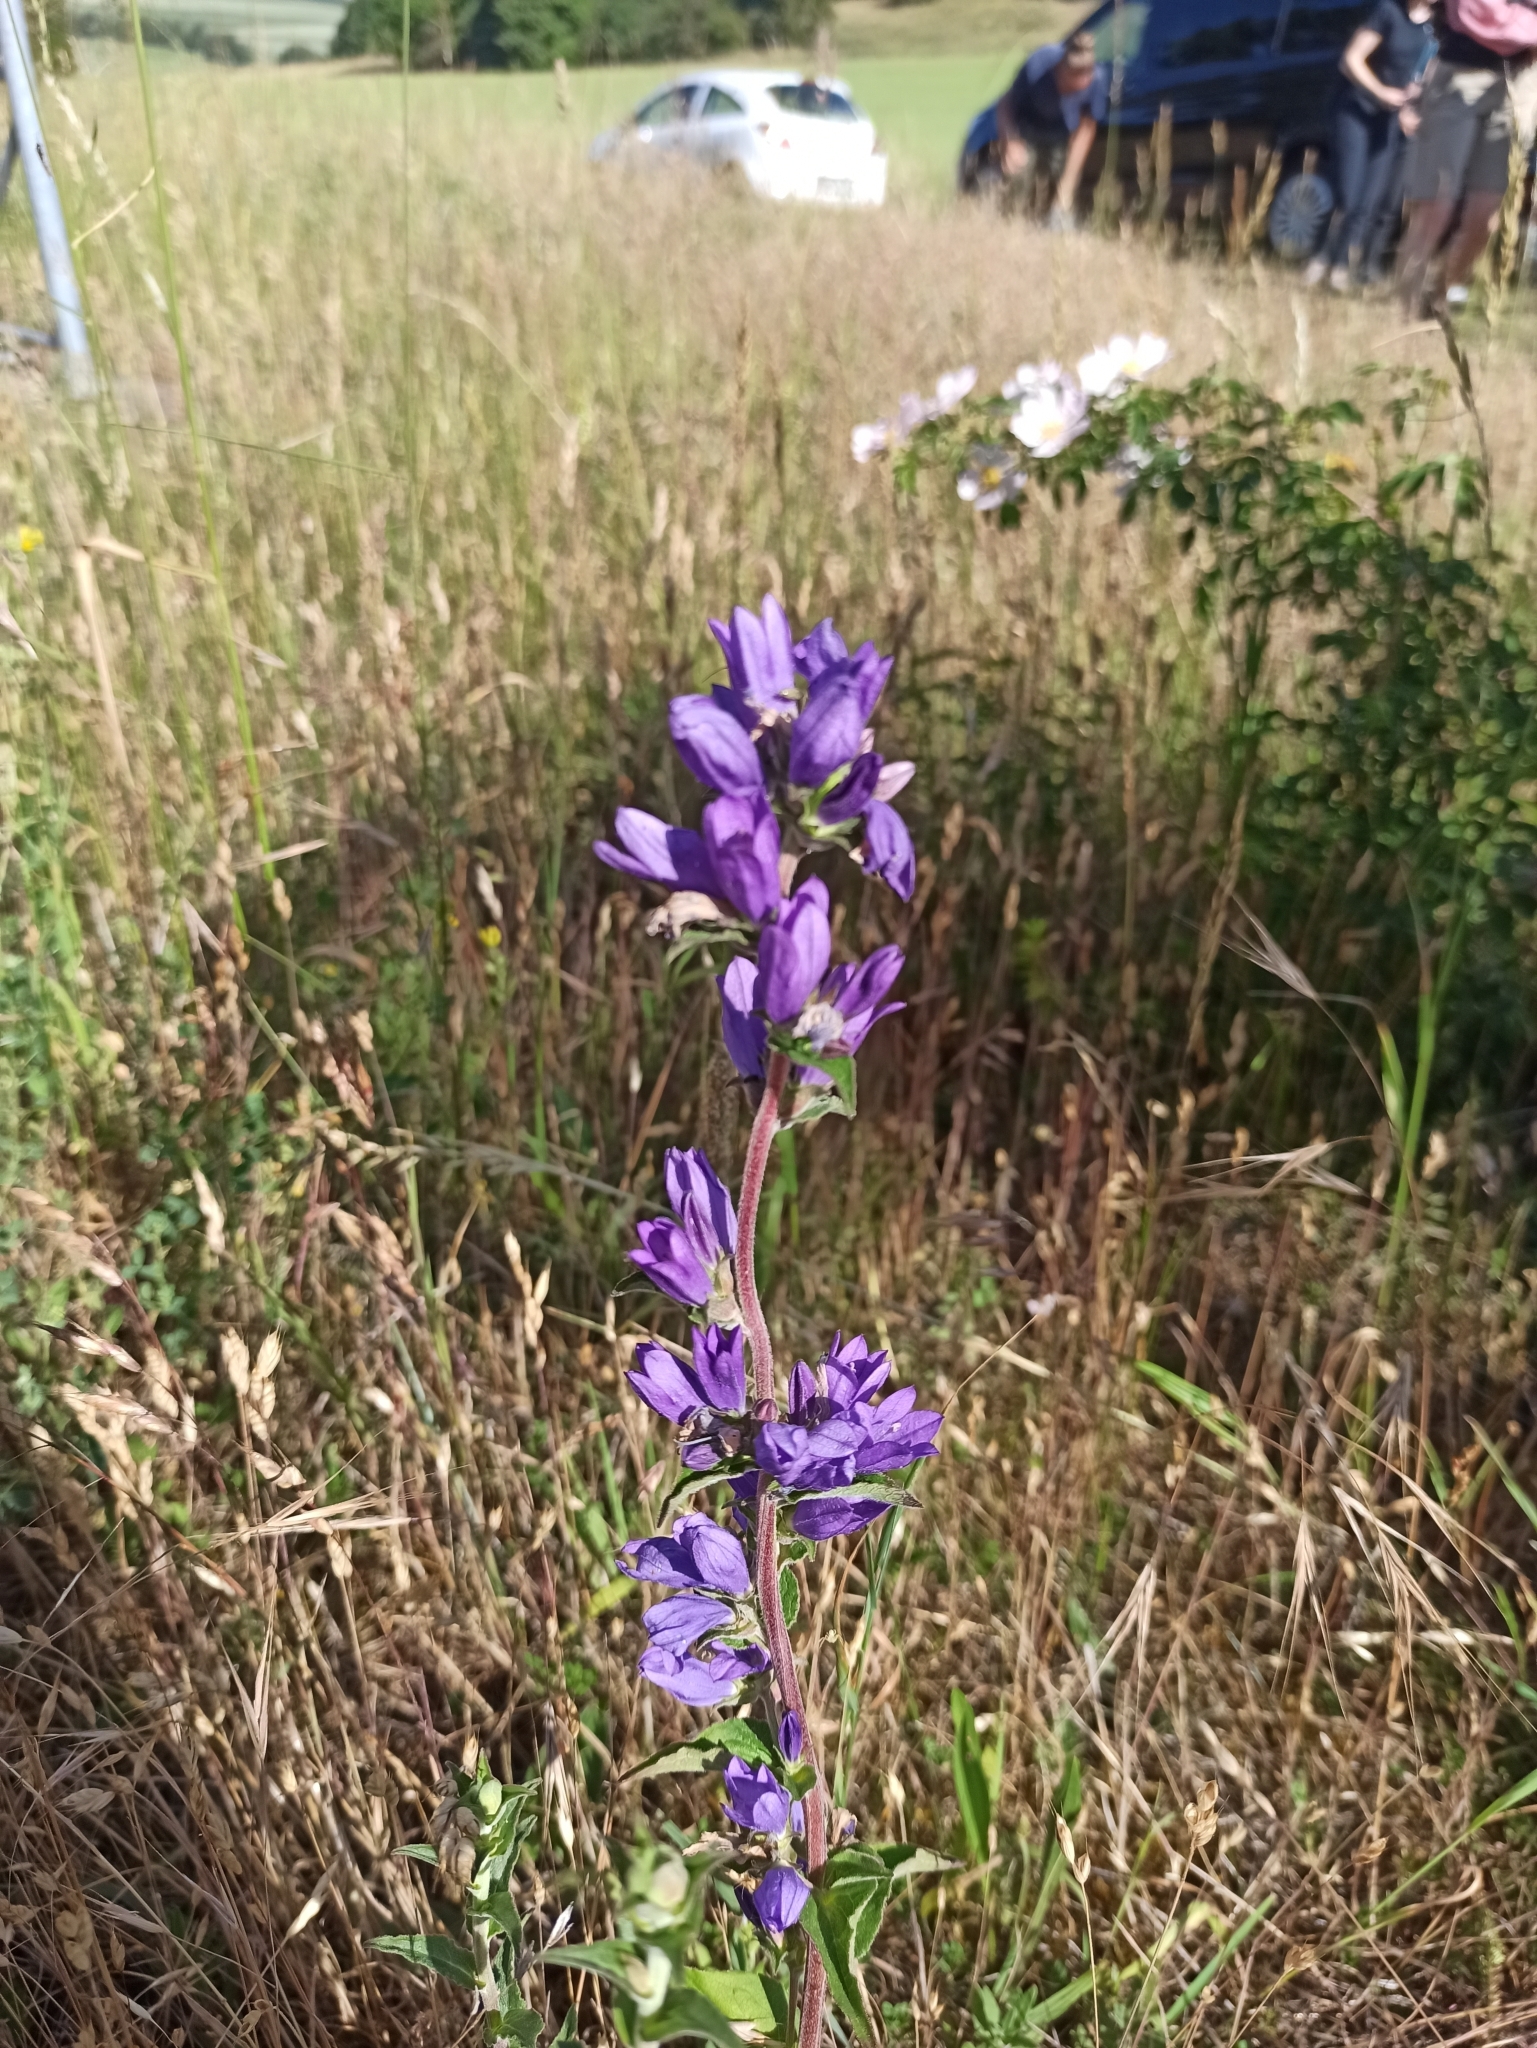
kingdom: Plantae
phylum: Tracheophyta
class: Magnoliopsida
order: Asterales
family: Campanulaceae
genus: Campanula
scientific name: Campanula glomerata
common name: Clustered bellflower
